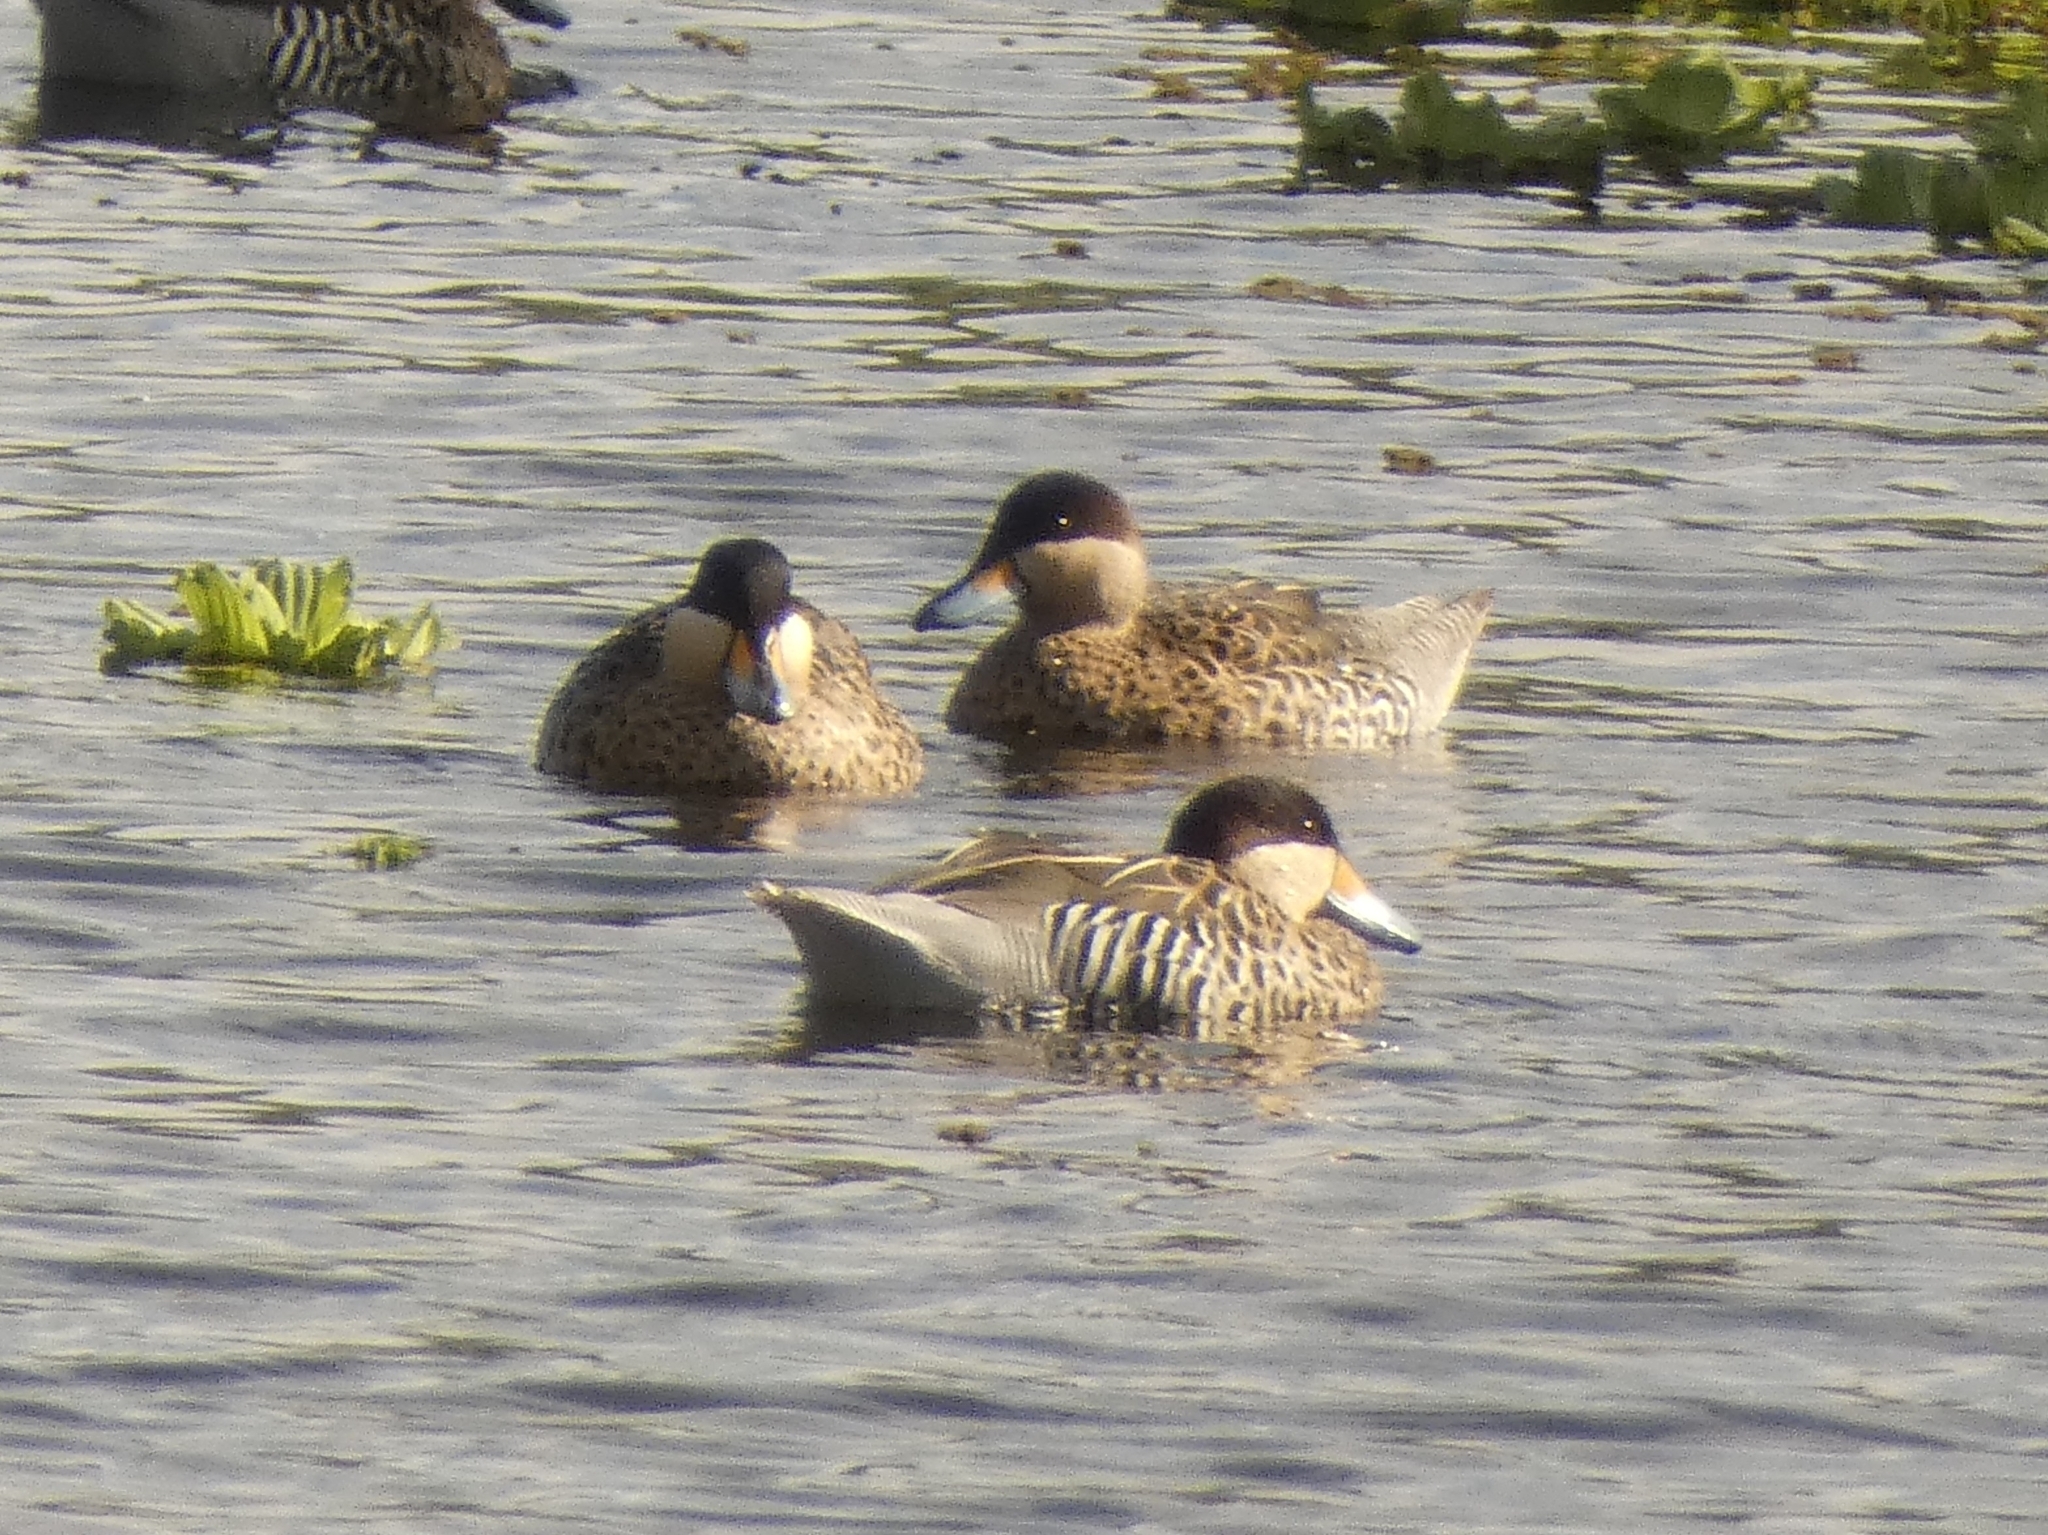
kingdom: Animalia
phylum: Chordata
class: Aves
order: Anseriformes
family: Anatidae
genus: Spatula
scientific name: Spatula versicolor
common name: Silver teal
